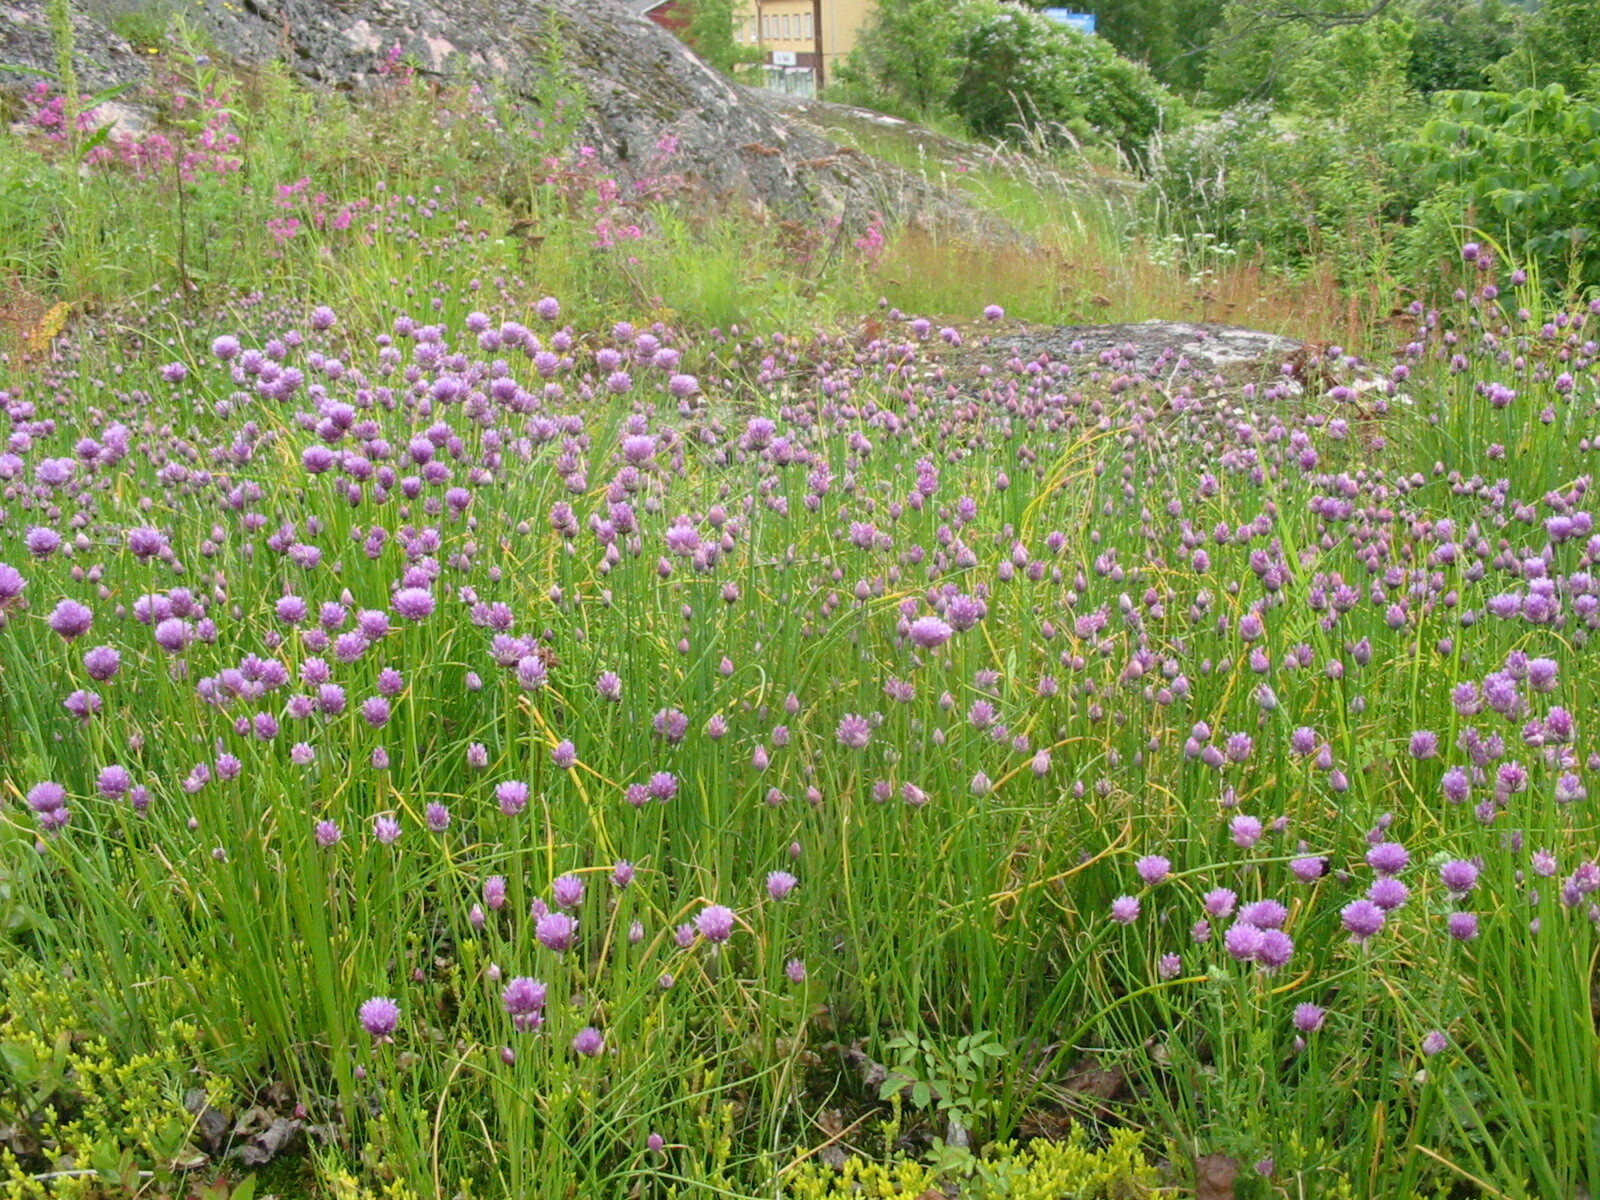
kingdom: Plantae
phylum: Tracheophyta
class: Liliopsida
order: Asparagales
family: Amaryllidaceae
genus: Allium
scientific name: Allium schoenoprasum
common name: Chives
